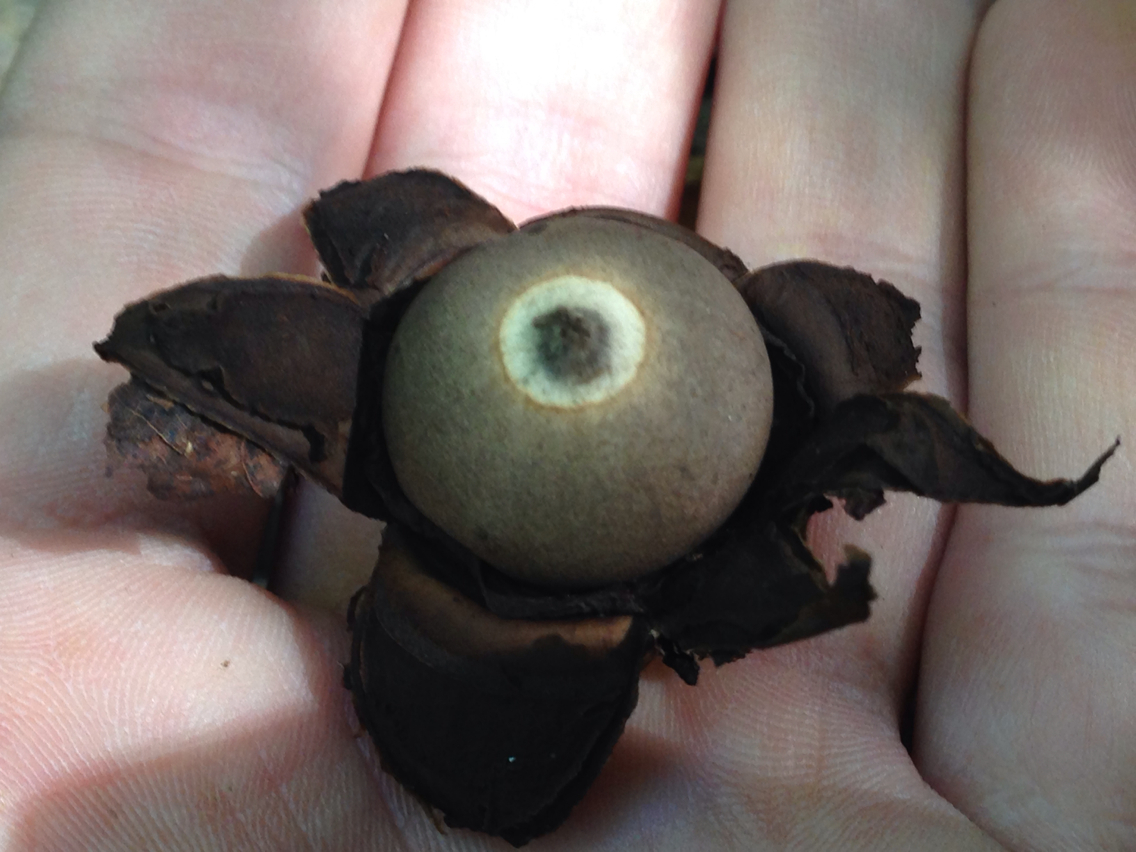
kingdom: Fungi
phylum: Basidiomycota
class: Agaricomycetes
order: Geastrales
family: Geastraceae
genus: Geastrum
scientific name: Geastrum saccatum
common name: Rounded earthstar
